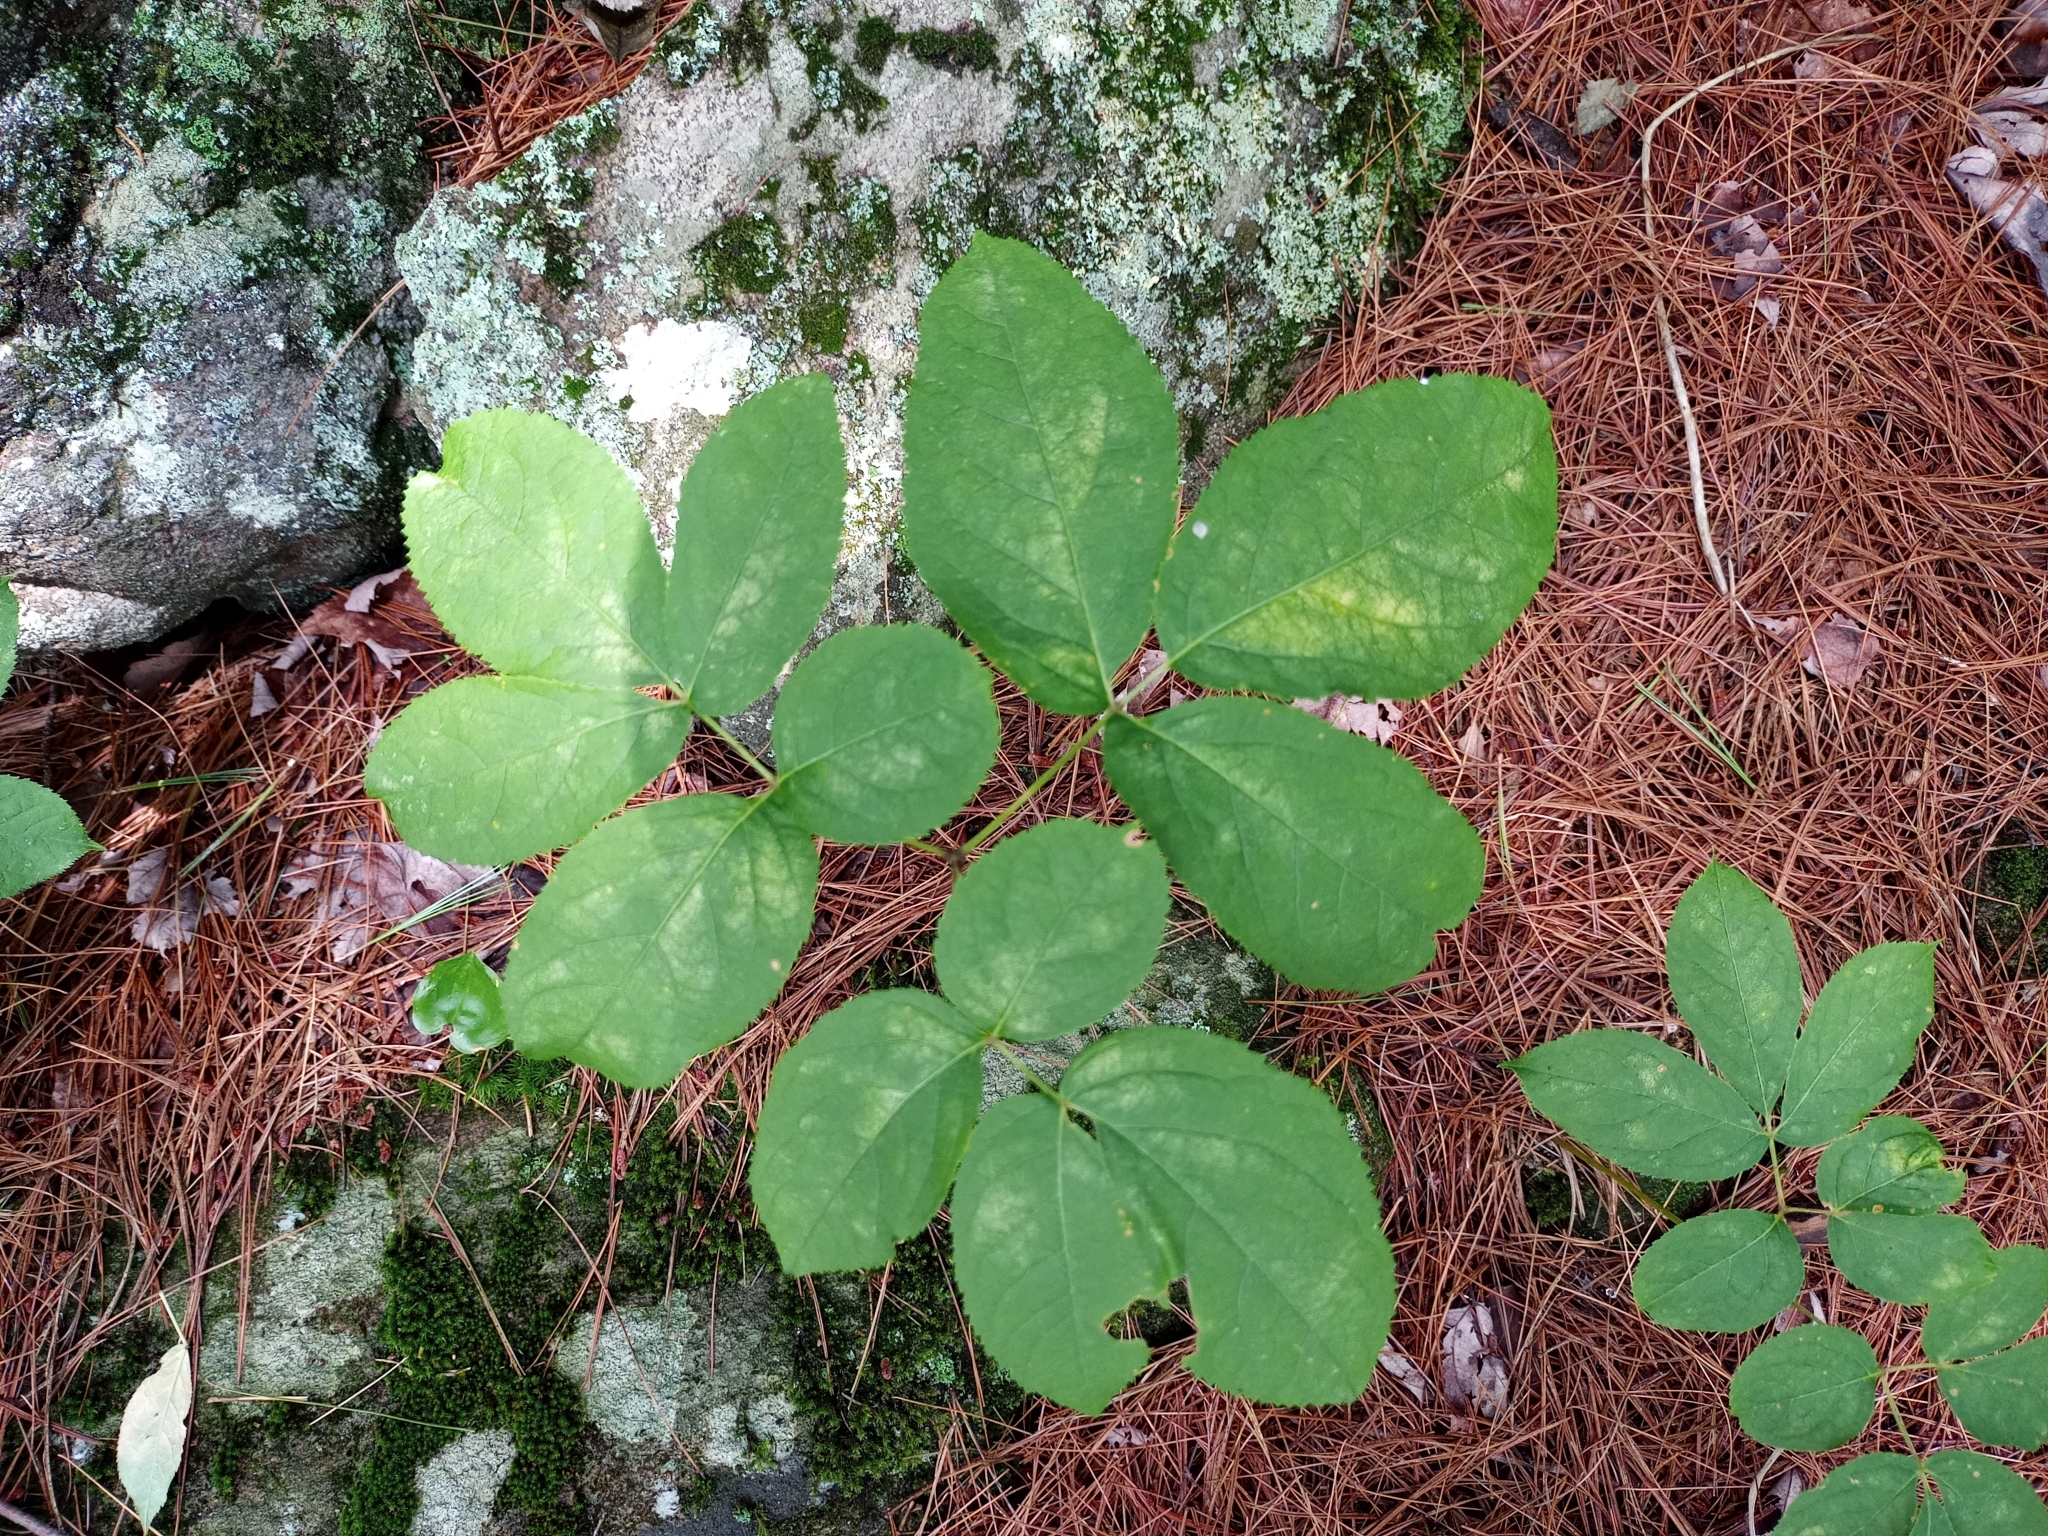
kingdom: Plantae
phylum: Tracheophyta
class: Magnoliopsida
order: Apiales
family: Araliaceae
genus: Aralia
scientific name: Aralia nudicaulis
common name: Wild sarsaparilla
